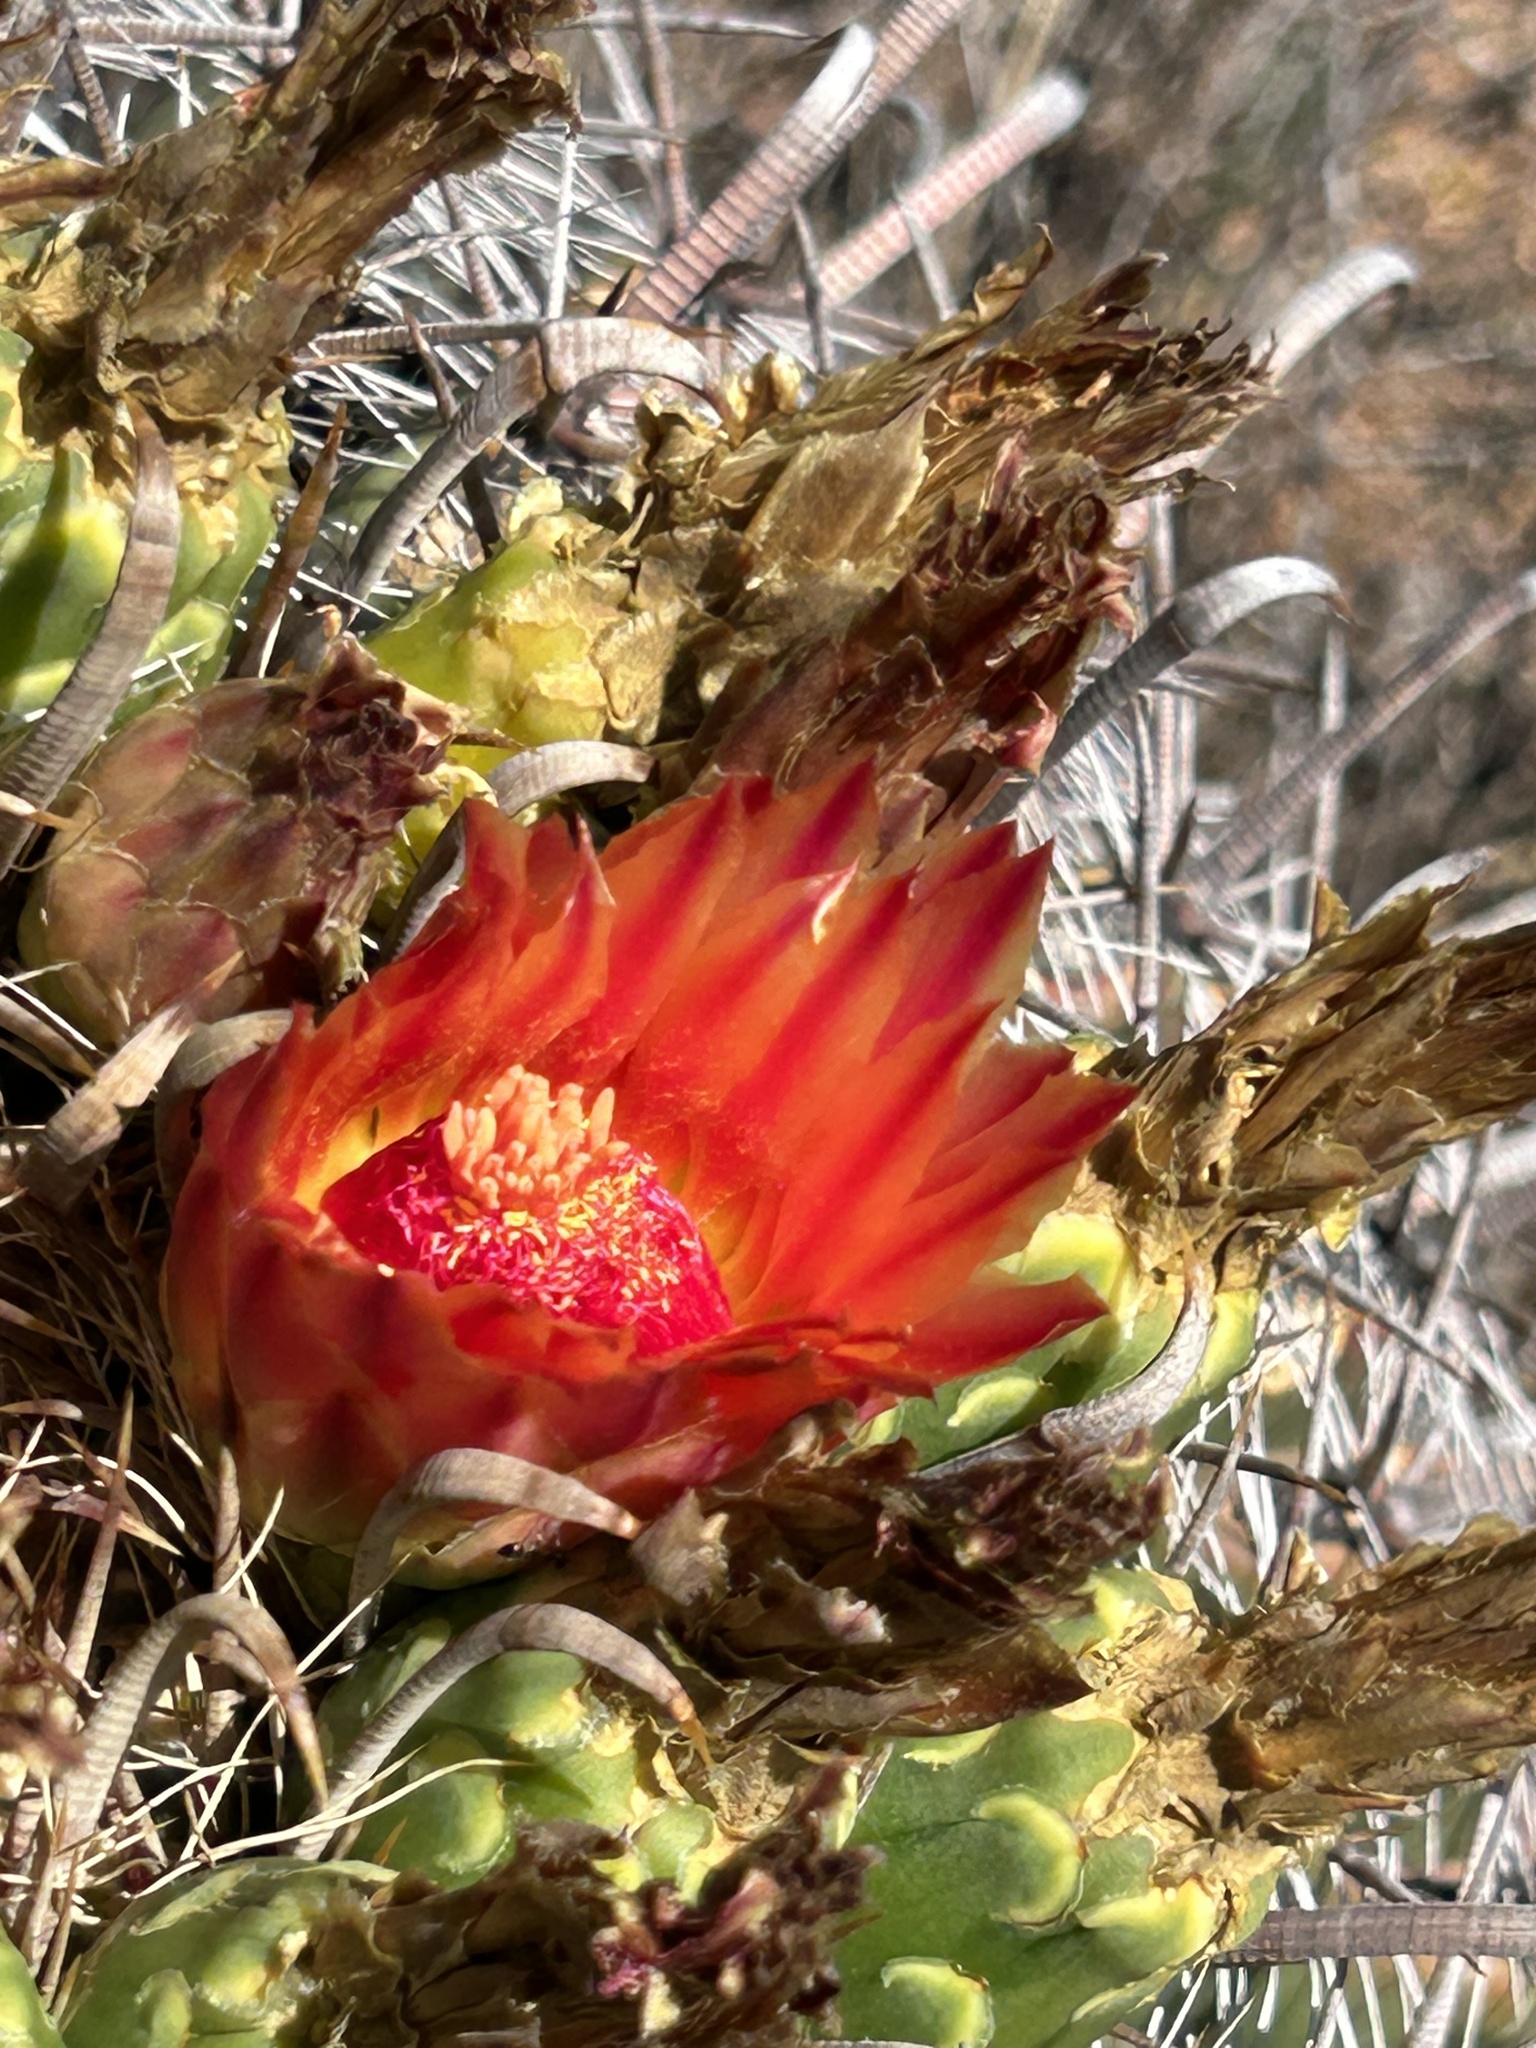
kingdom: Plantae
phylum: Tracheophyta
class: Magnoliopsida
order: Caryophyllales
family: Cactaceae
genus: Ferocactus
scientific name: Ferocactus wislizeni
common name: Candy barrel cactus
